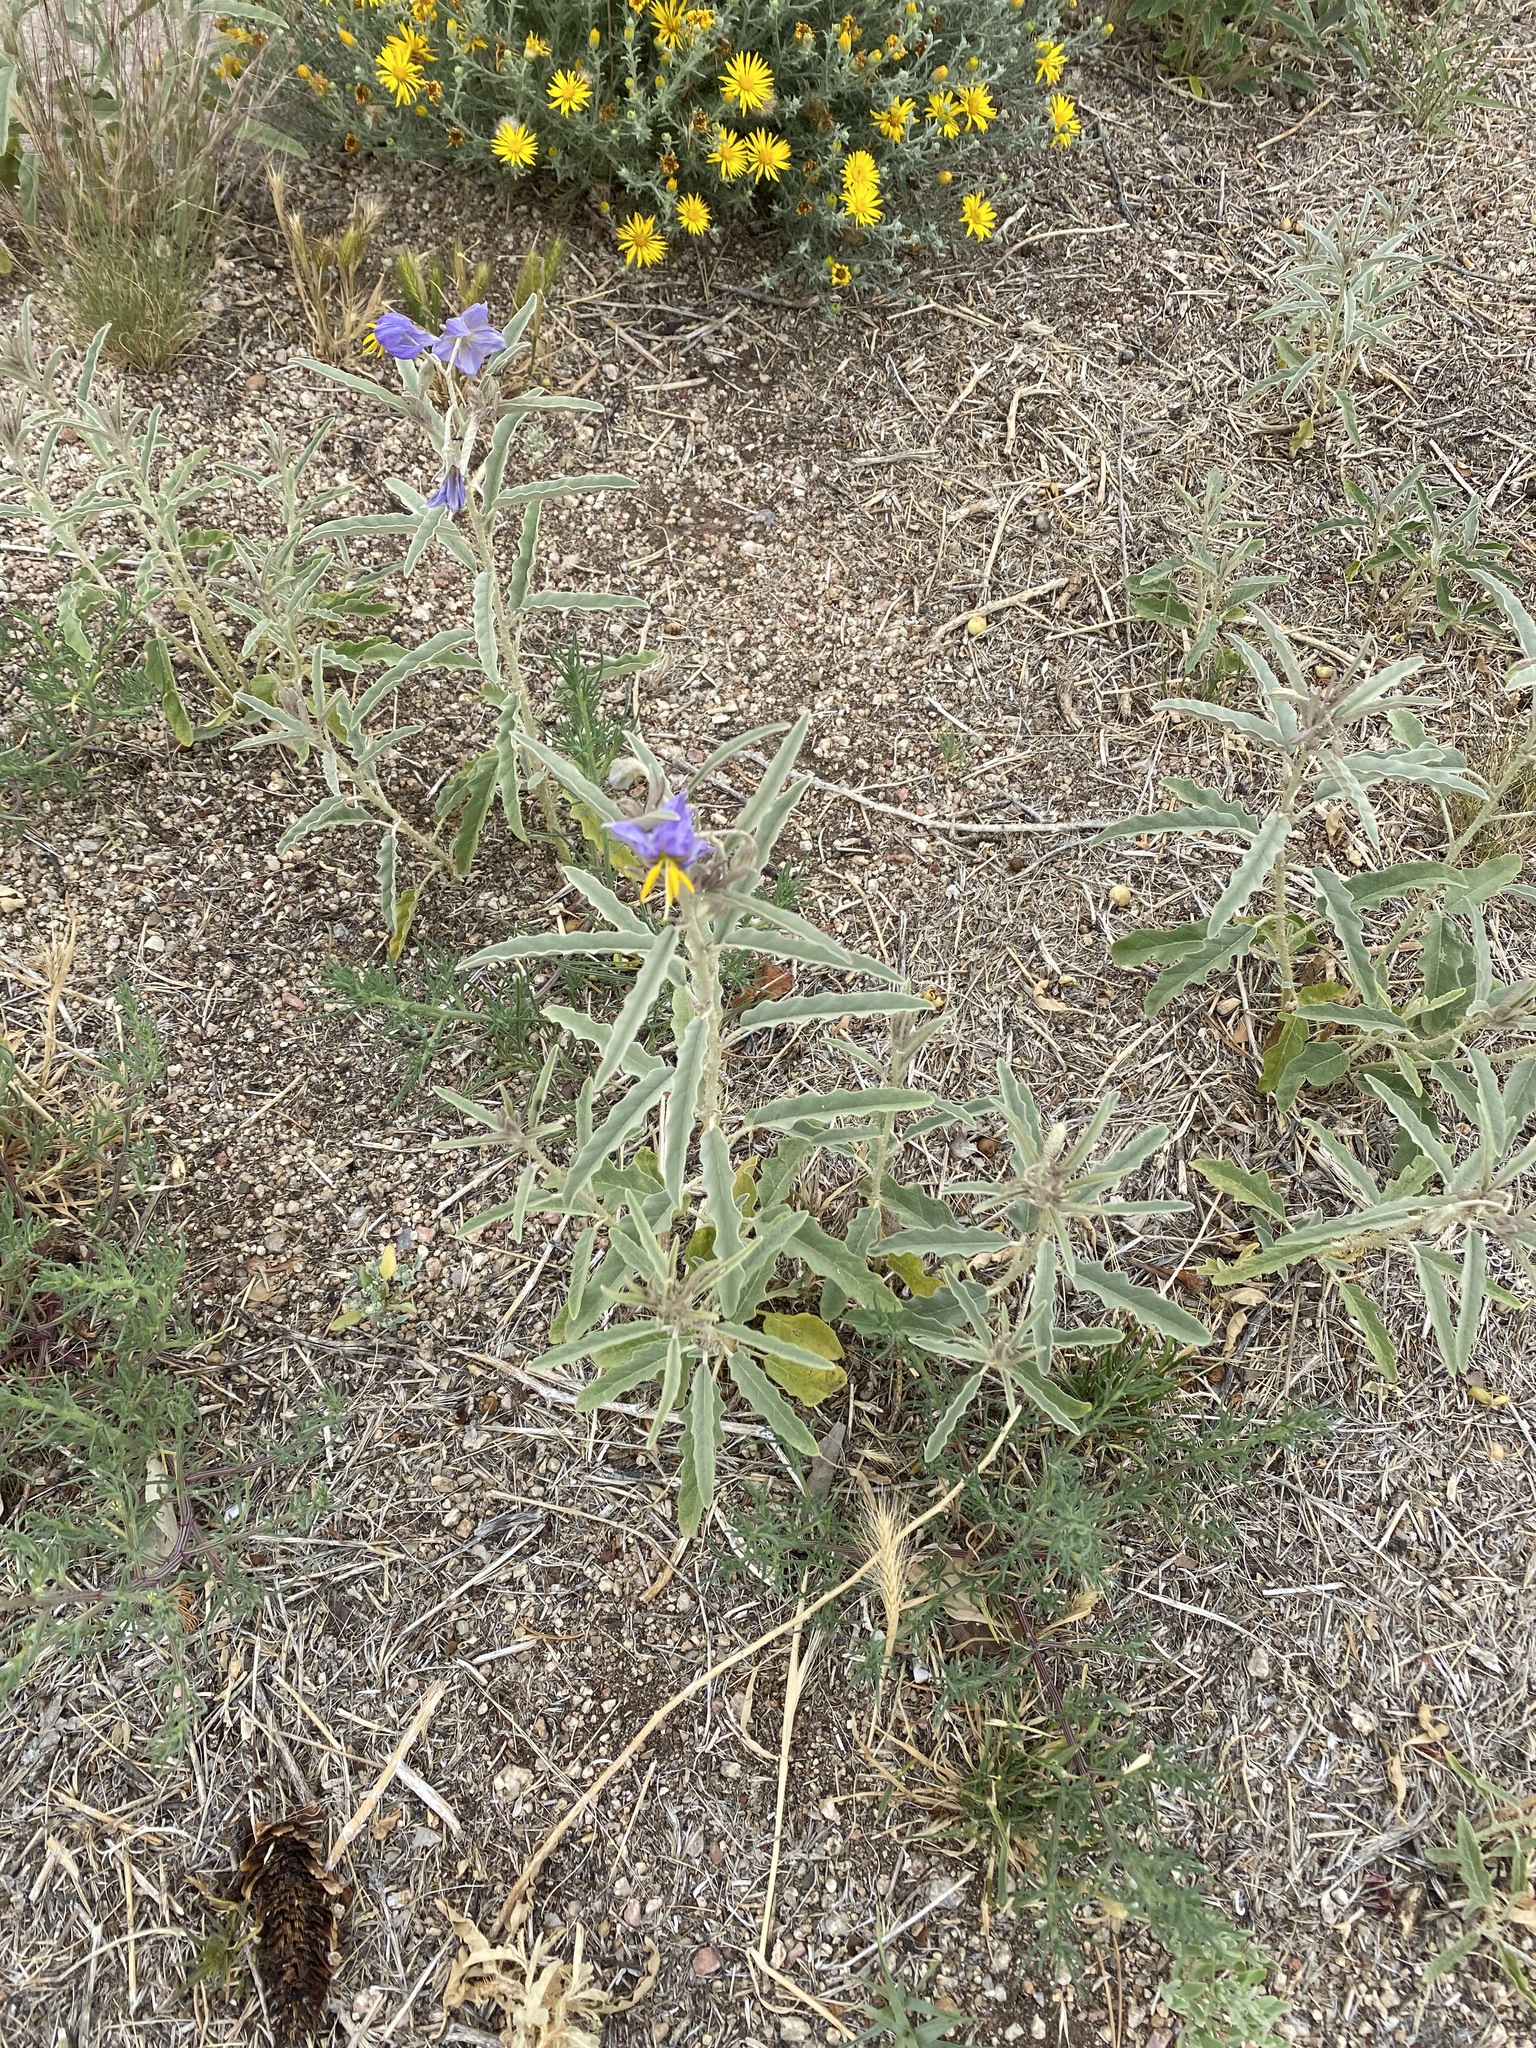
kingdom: Plantae
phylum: Tracheophyta
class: Magnoliopsida
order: Solanales
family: Solanaceae
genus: Solanum
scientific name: Solanum elaeagnifolium
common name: Silverleaf nightshade
